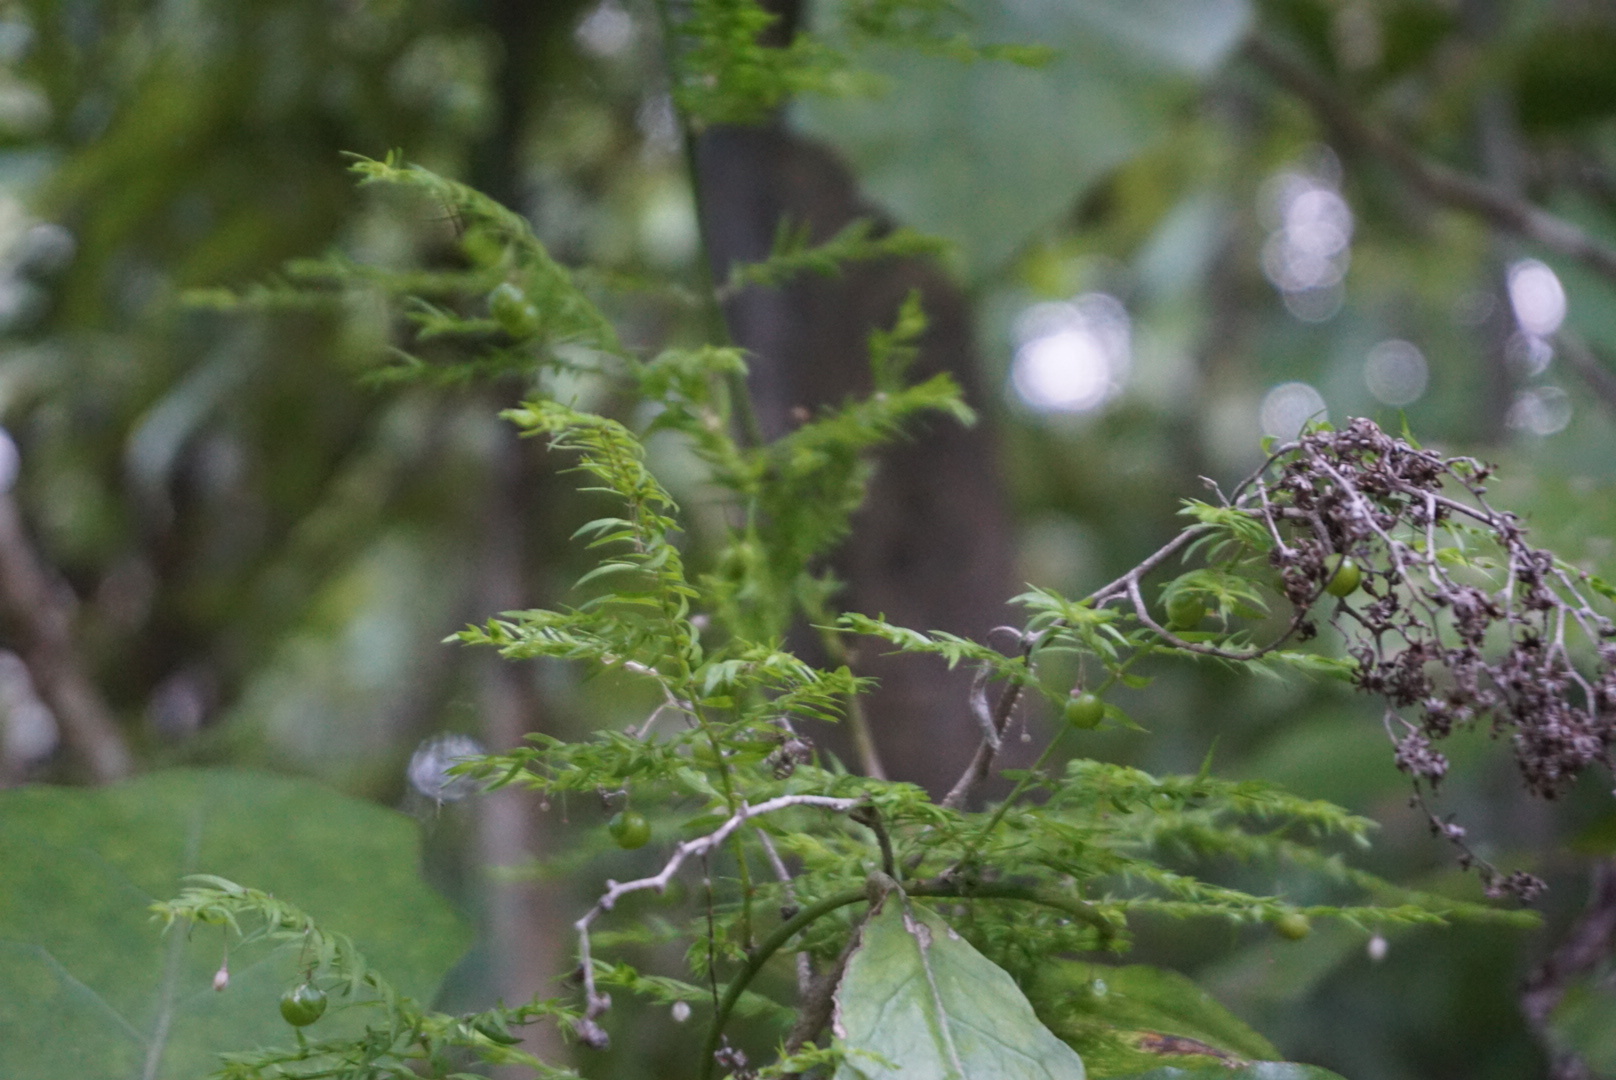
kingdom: Plantae
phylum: Tracheophyta
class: Liliopsida
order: Asparagales
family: Asparagaceae
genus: Asparagus
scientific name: Asparagus scandens
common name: Asparagus-fern
